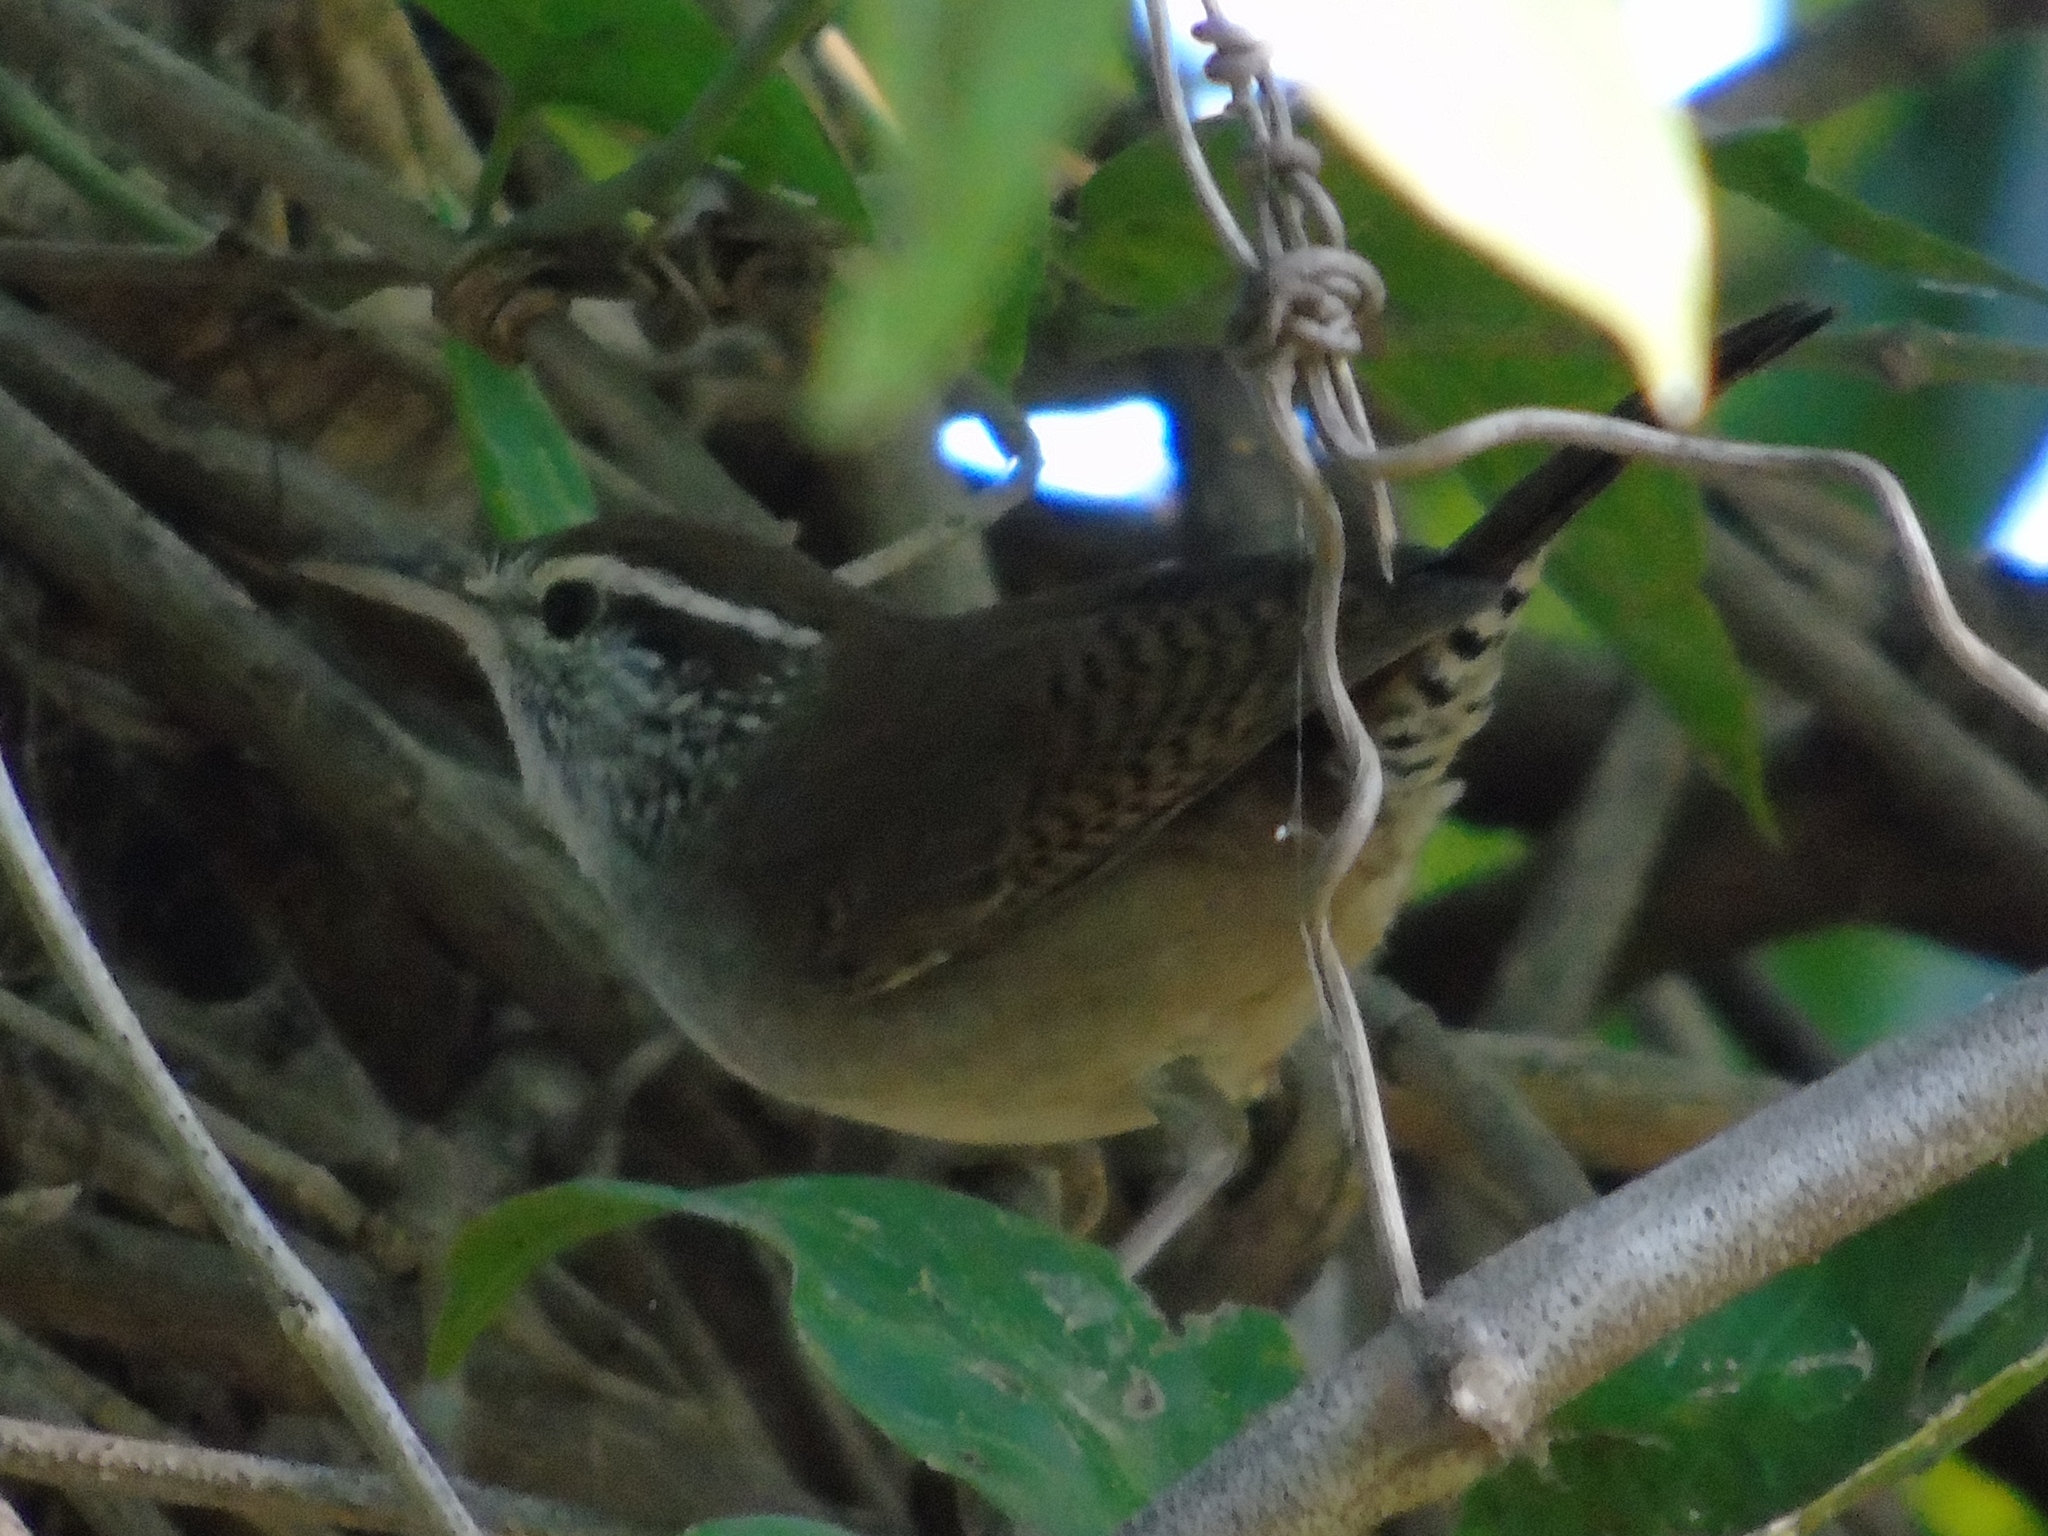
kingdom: Animalia
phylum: Chordata
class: Aves
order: Passeriformes
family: Troglodytidae
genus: Thryophilus
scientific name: Thryophilus sinaloa
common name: Sinaloa wren
